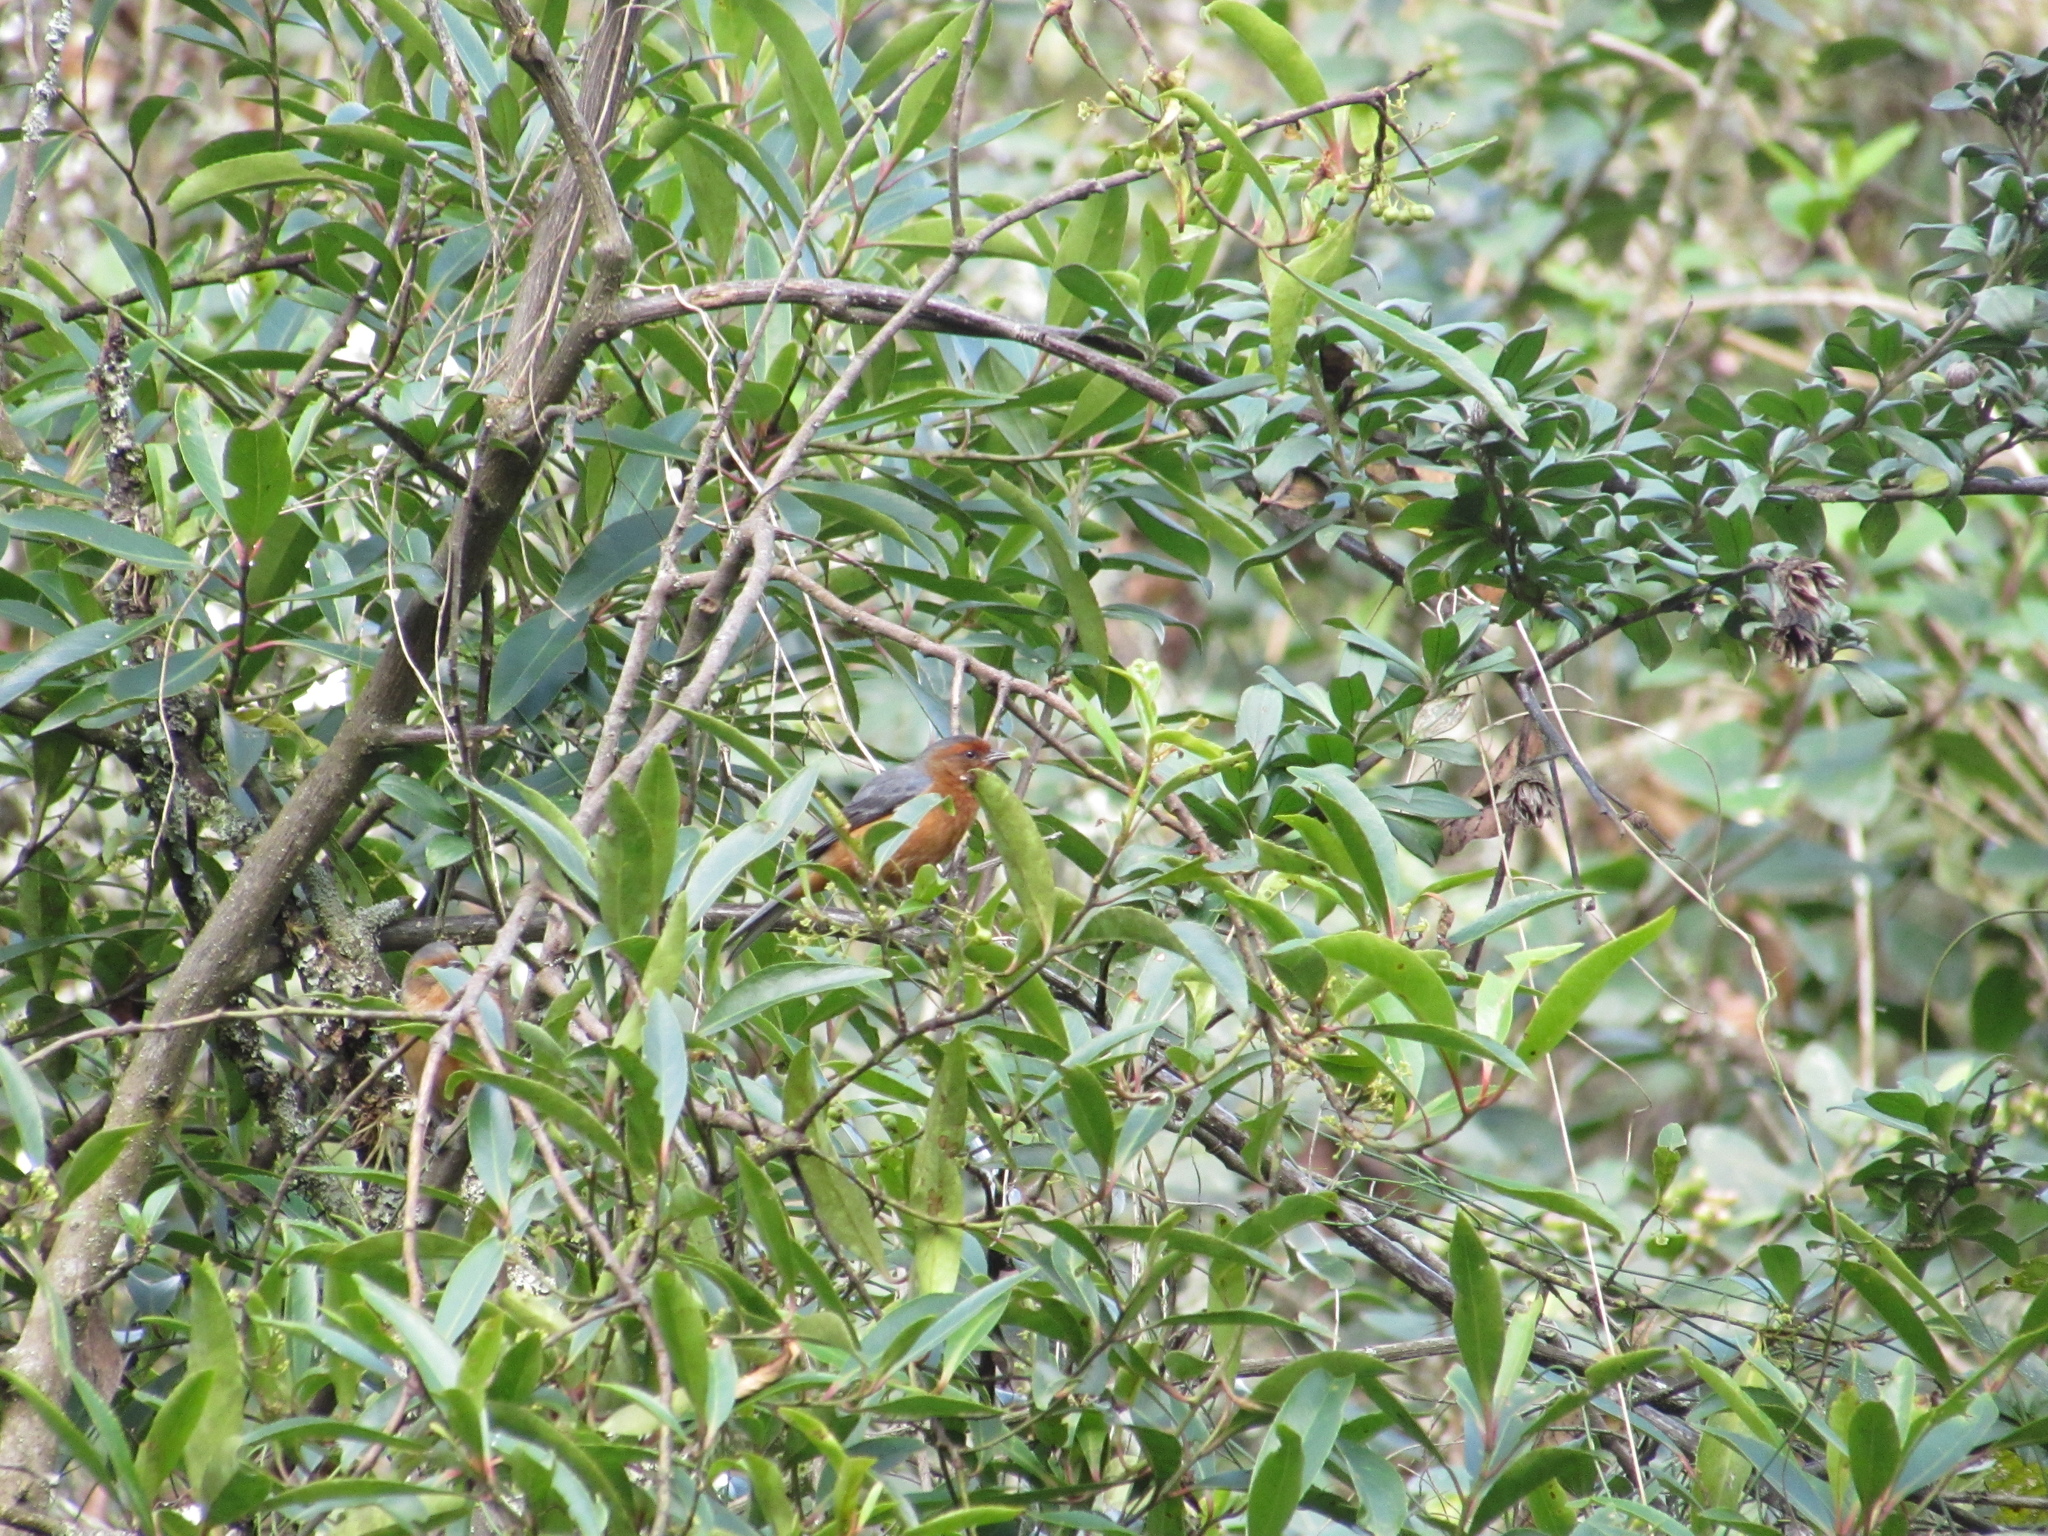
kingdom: Animalia
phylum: Chordata
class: Aves
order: Passeriformes
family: Thraupidae
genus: Conirostrum
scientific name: Conirostrum rufum
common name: Rufous-browed conebill
